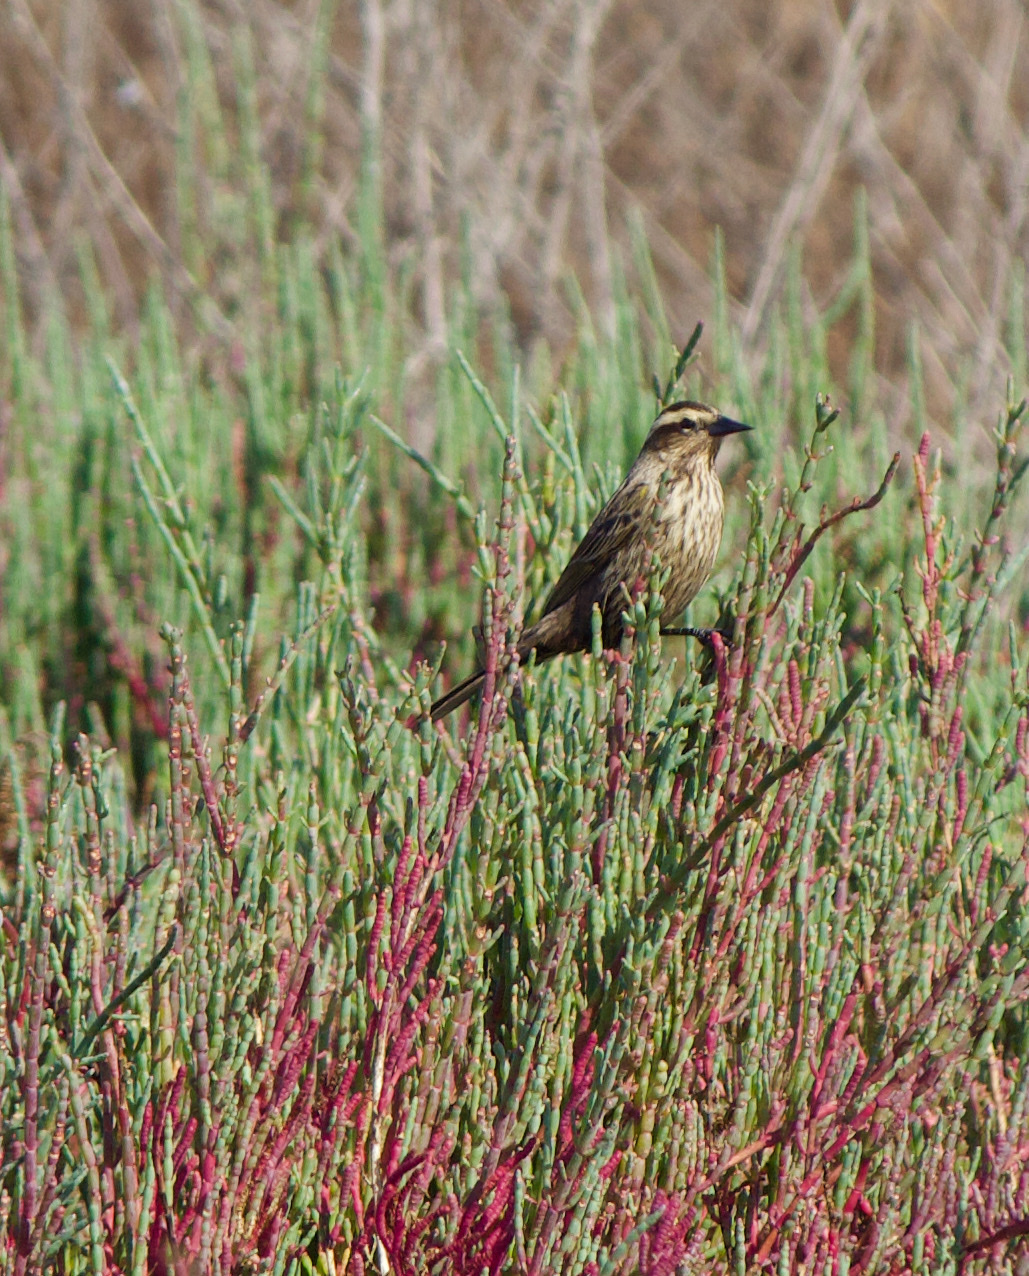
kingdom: Animalia
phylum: Chordata
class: Aves
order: Passeriformes
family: Icteridae
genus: Agelasticus
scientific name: Agelasticus thilius
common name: Yellow-winged blackbird
